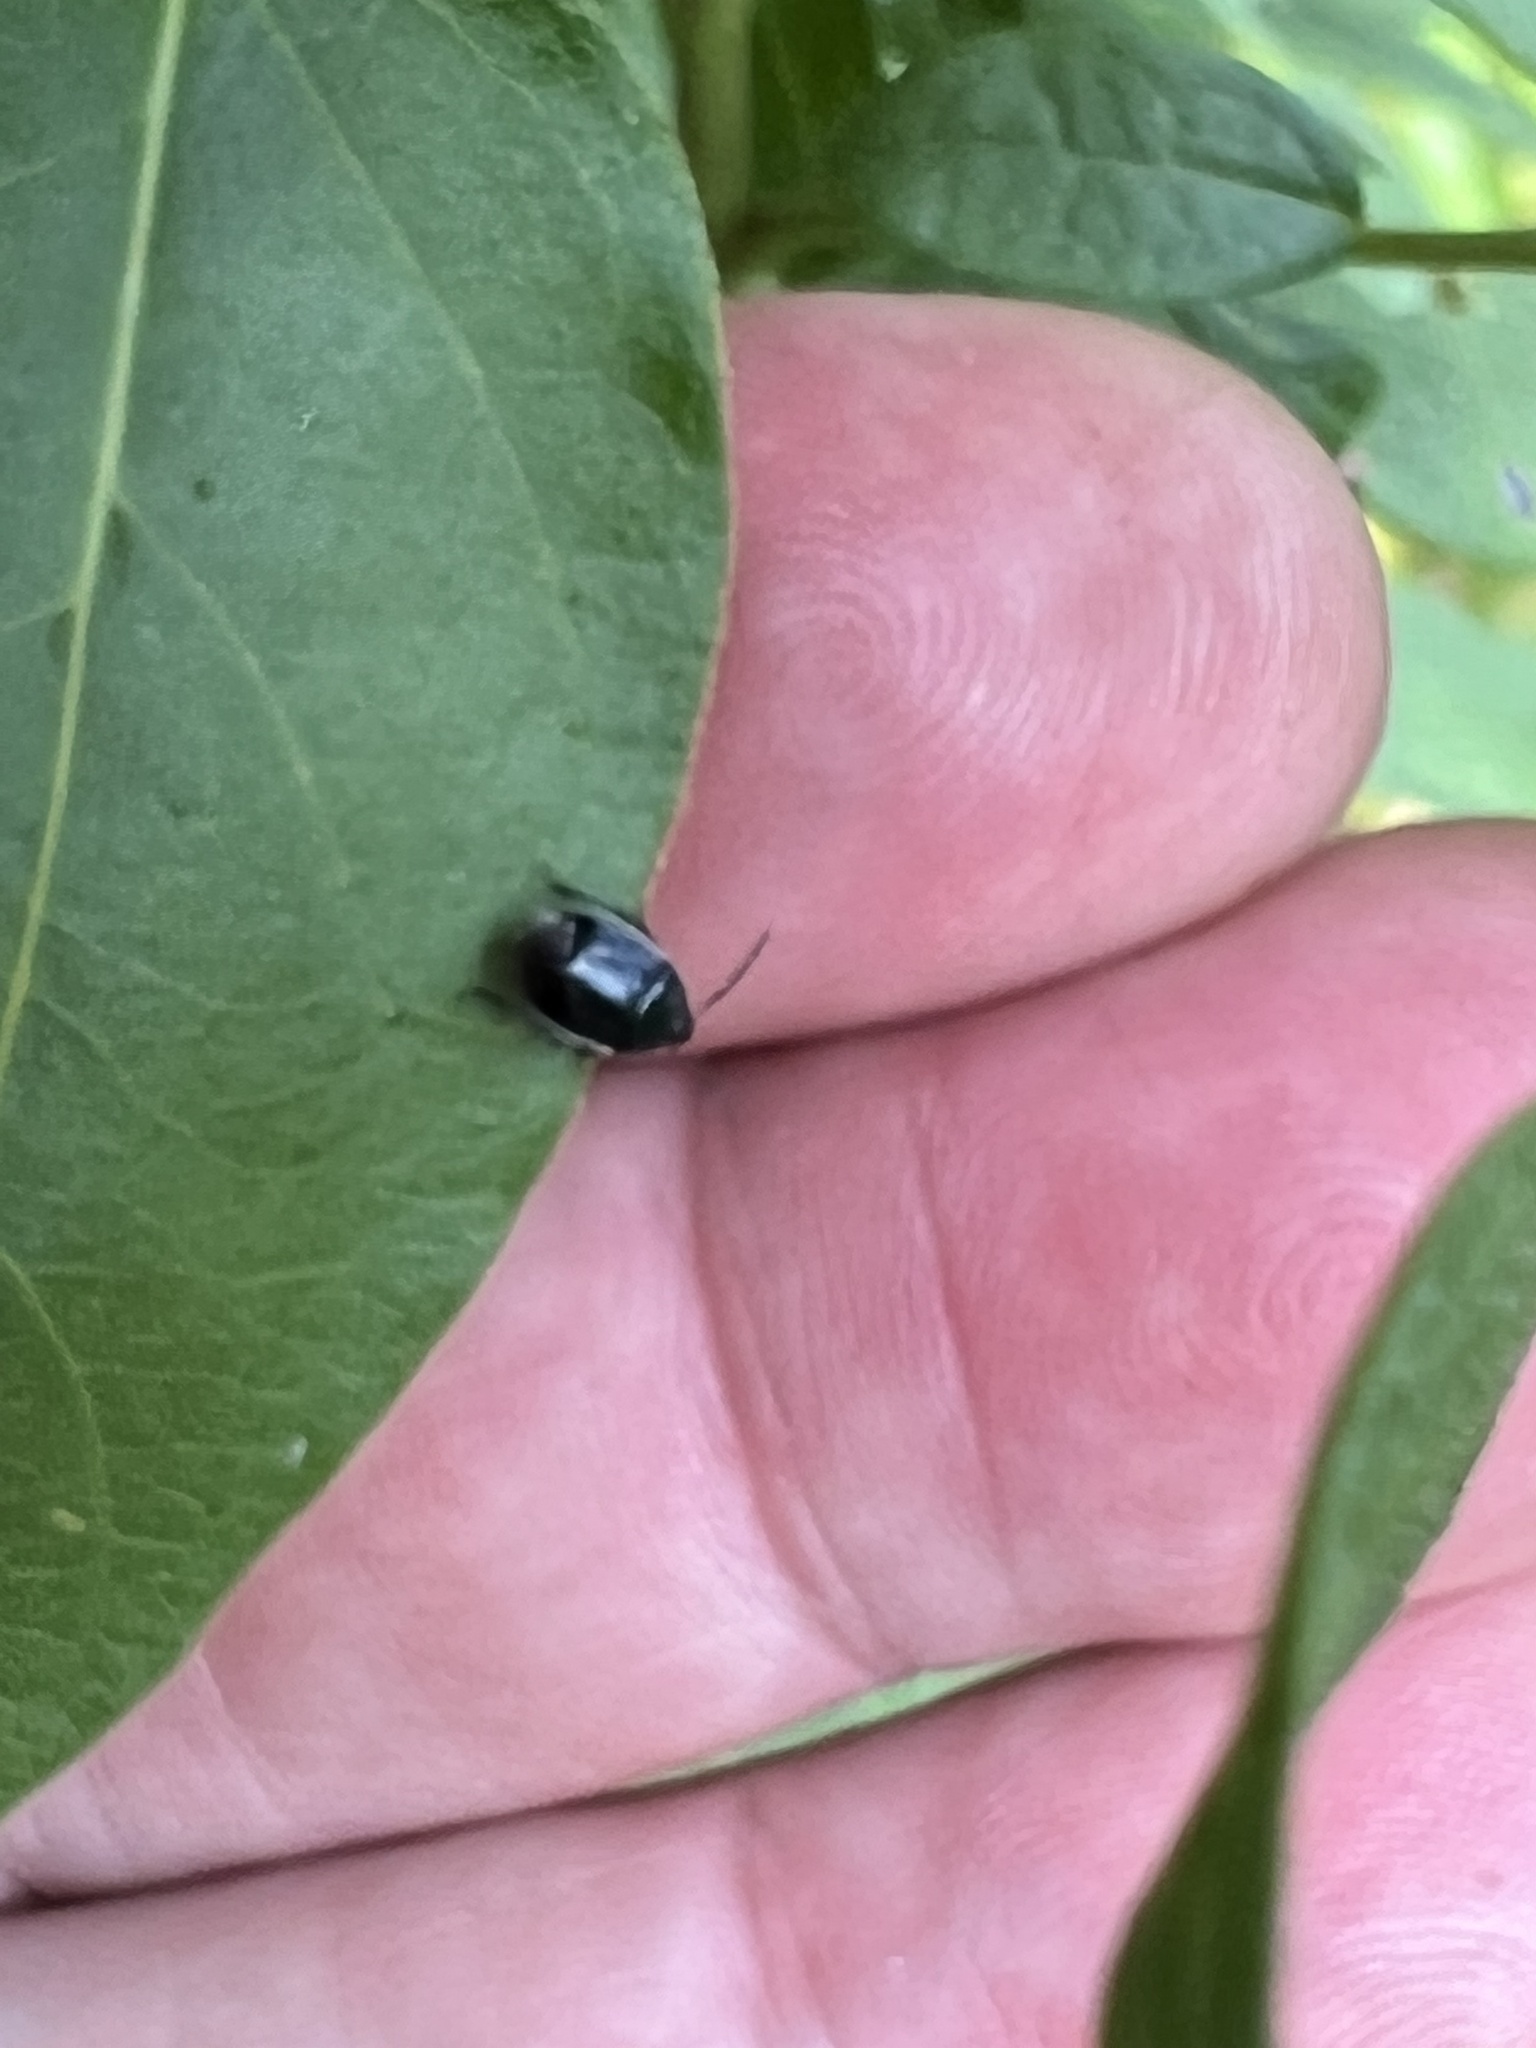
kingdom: Animalia
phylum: Arthropoda
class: Insecta
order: Hemiptera
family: Cydnidae
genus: Sehirus
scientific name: Sehirus cinctus
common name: White-margined burrower bug
